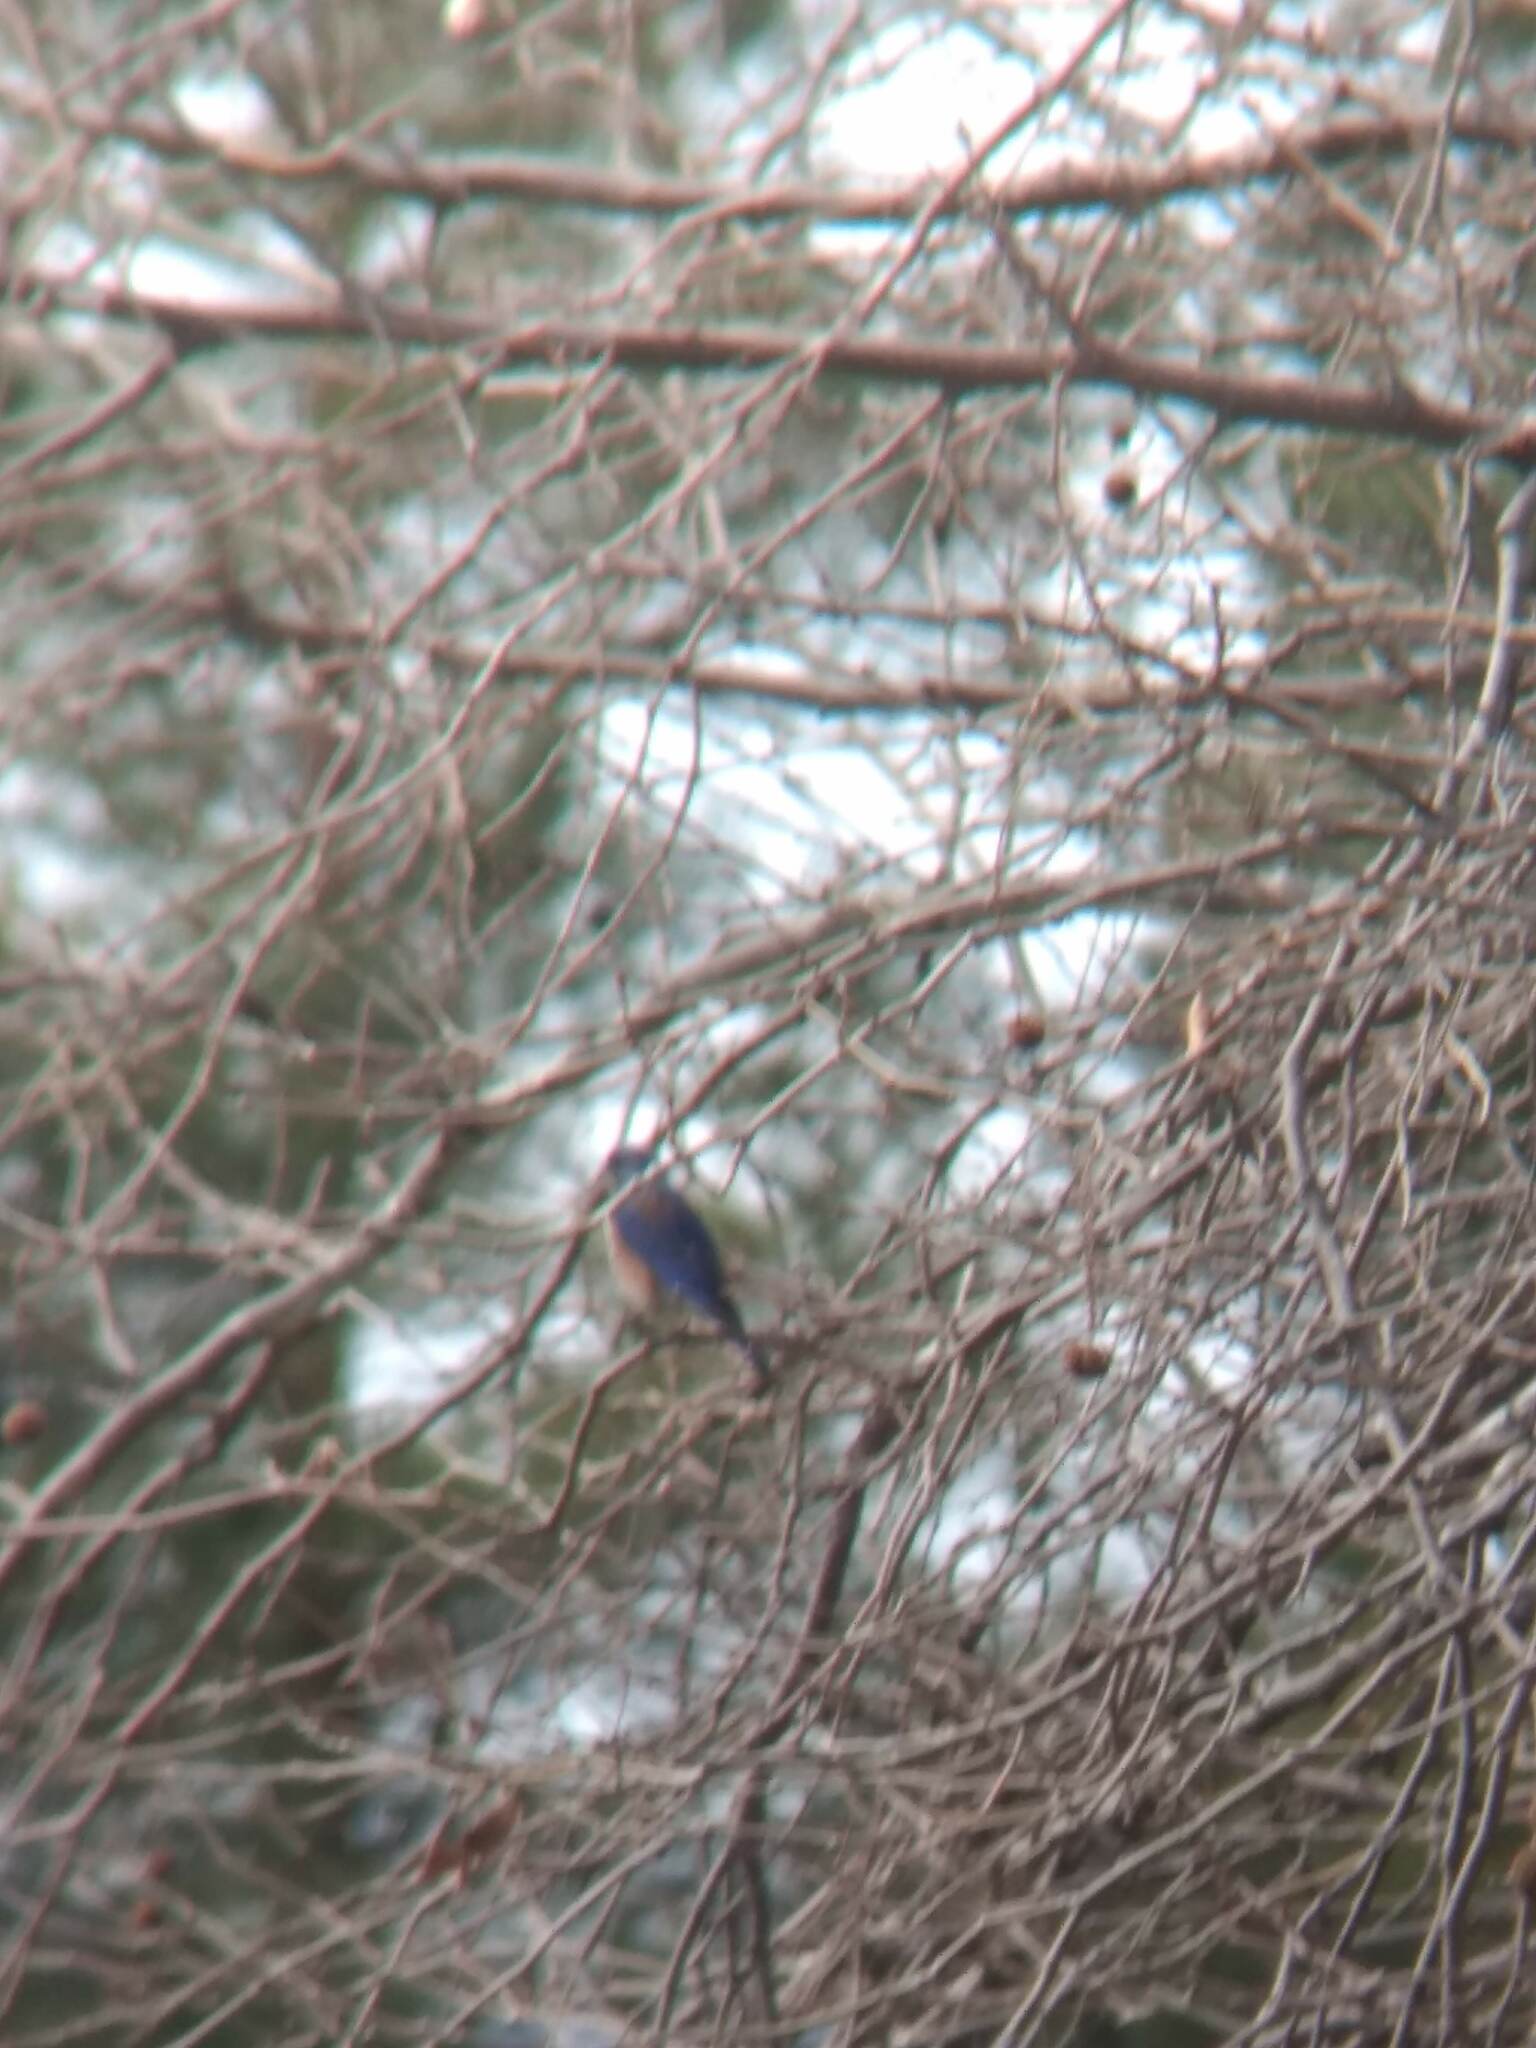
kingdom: Animalia
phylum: Chordata
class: Aves
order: Passeriformes
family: Turdidae
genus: Sialia
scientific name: Sialia mexicana
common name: Western bluebird
